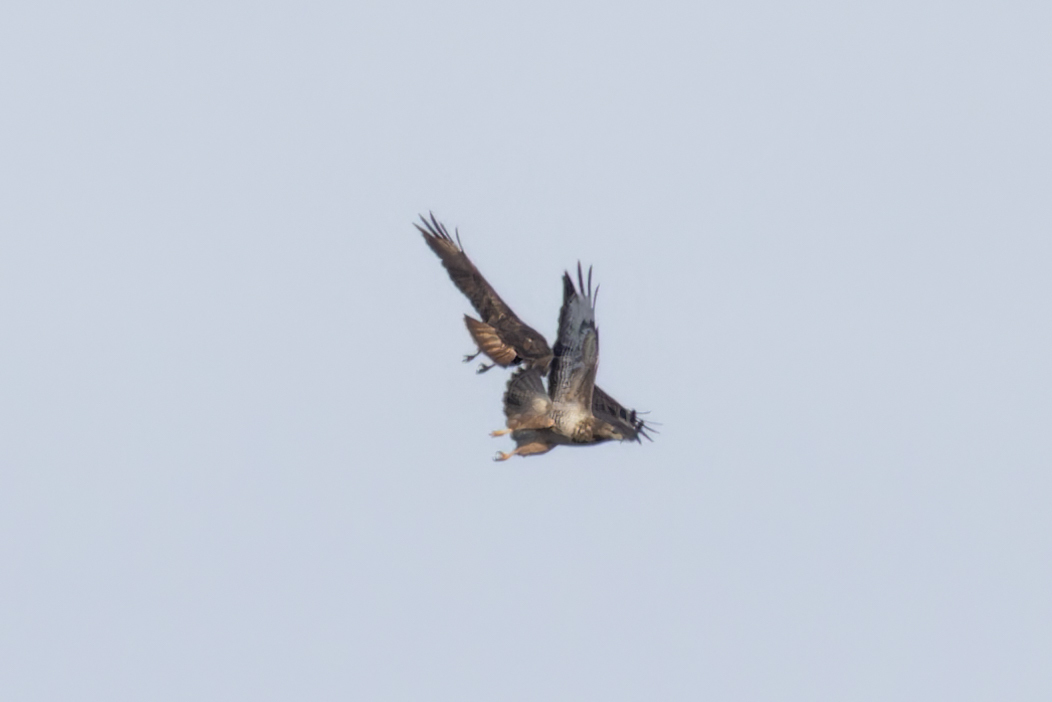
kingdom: Animalia
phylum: Chordata
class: Aves
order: Accipitriformes
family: Accipitridae
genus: Buteo
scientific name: Buteo buteo
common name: Common buzzard
